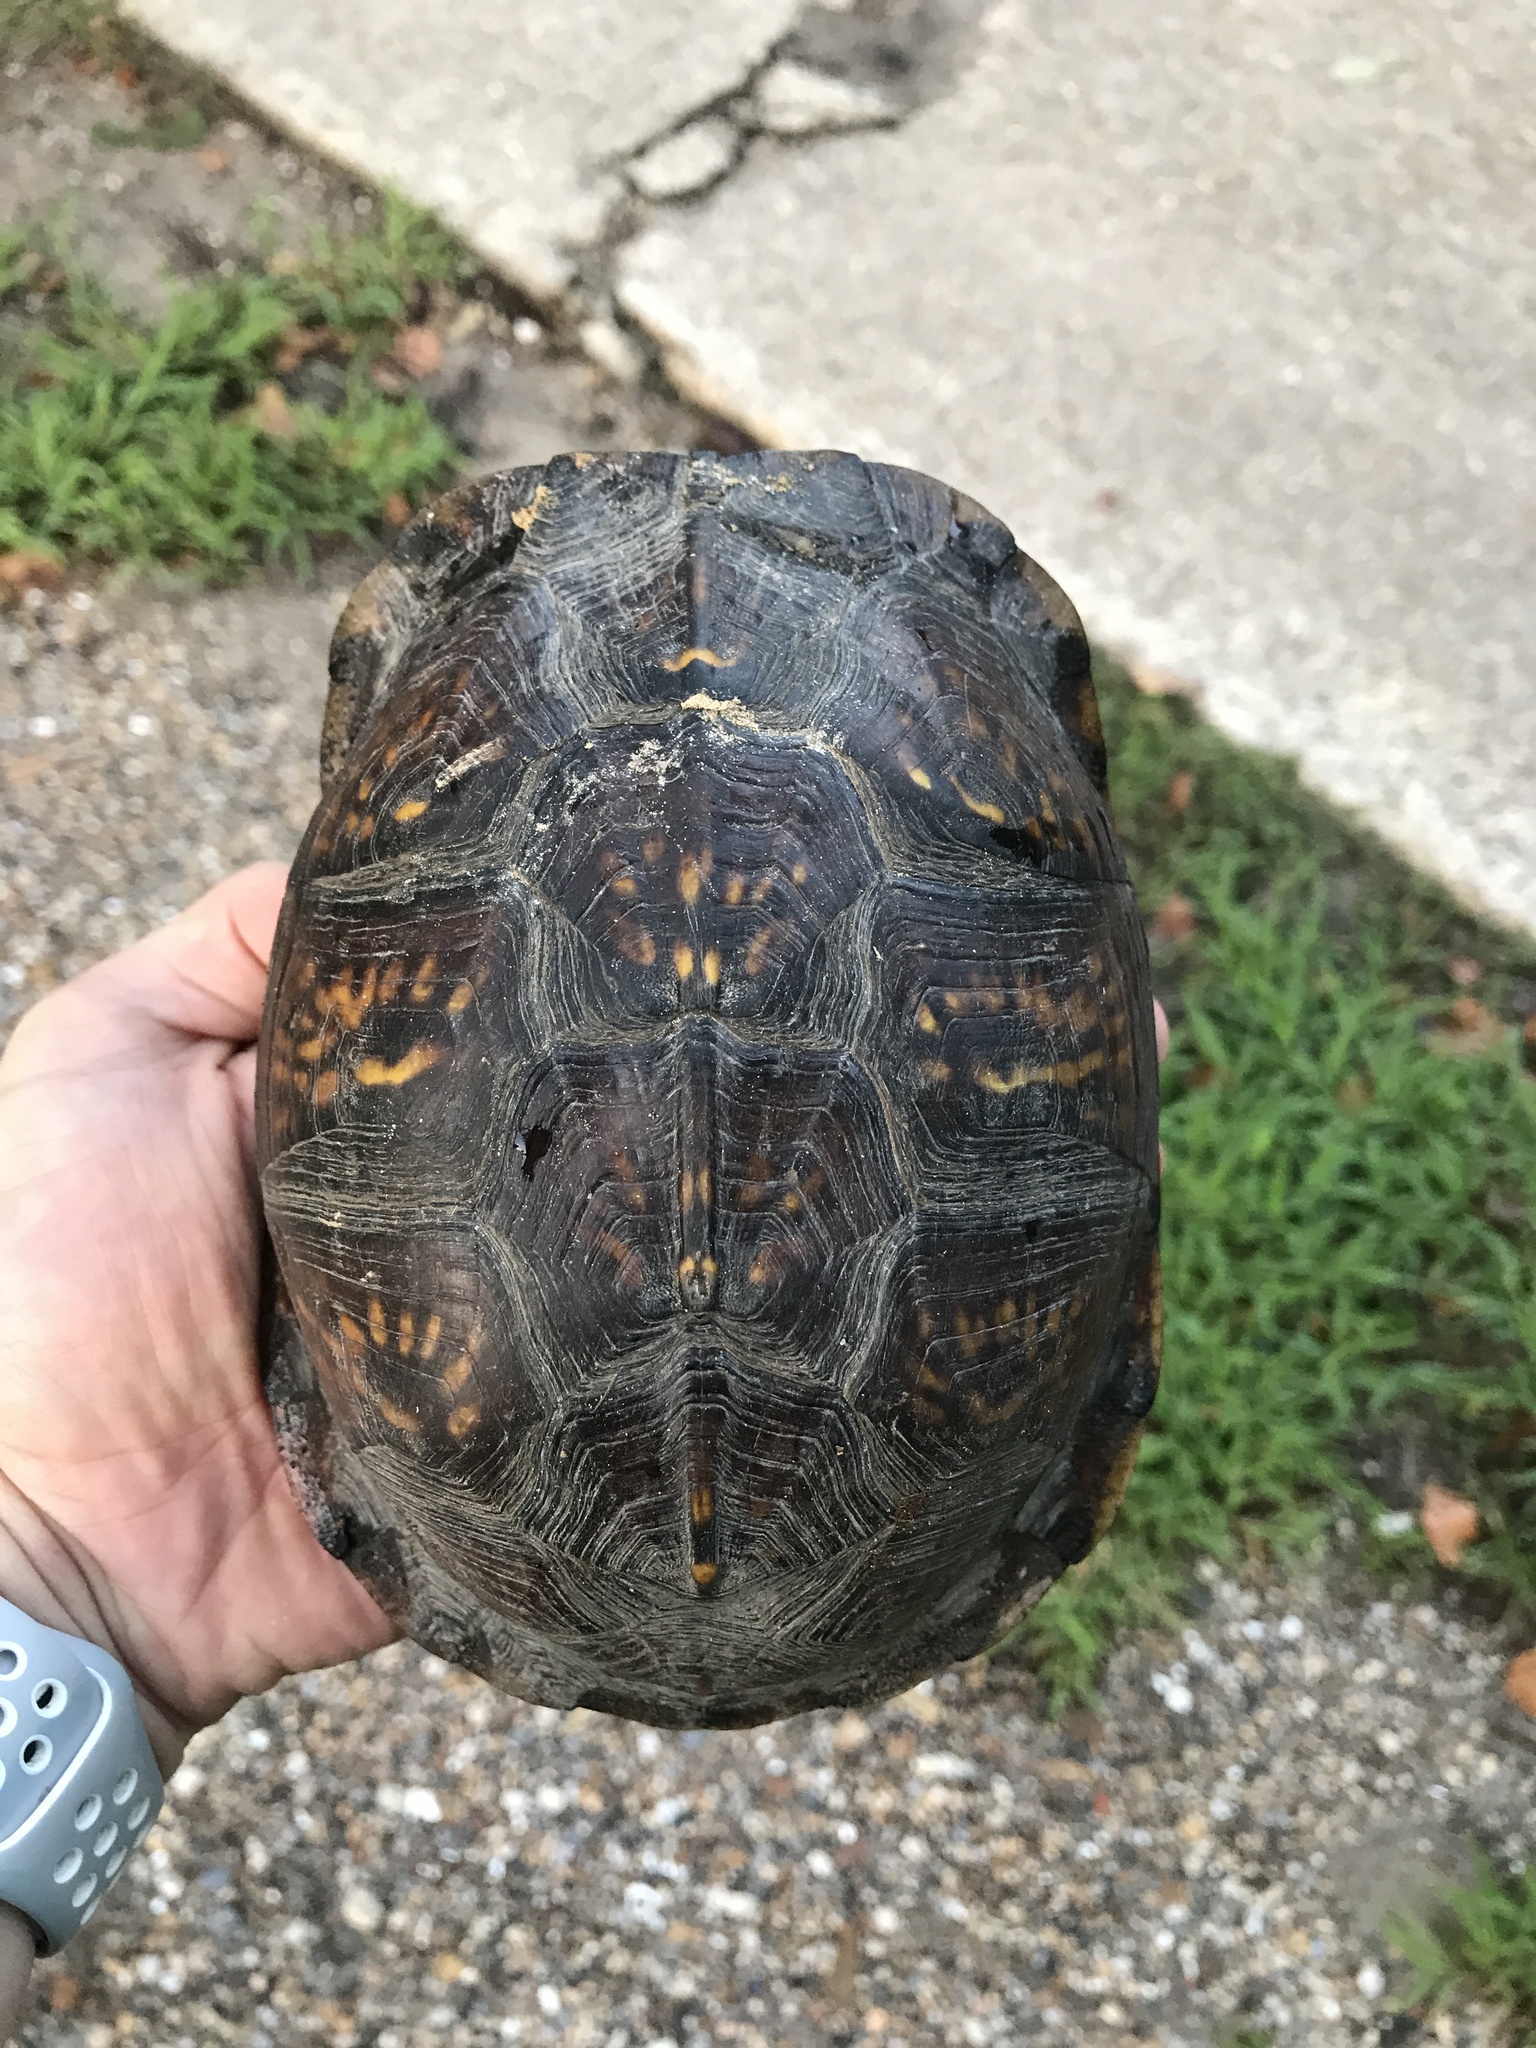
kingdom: Animalia
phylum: Chordata
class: Testudines
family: Emydidae
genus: Terrapene
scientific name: Terrapene carolina
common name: Common box turtle
